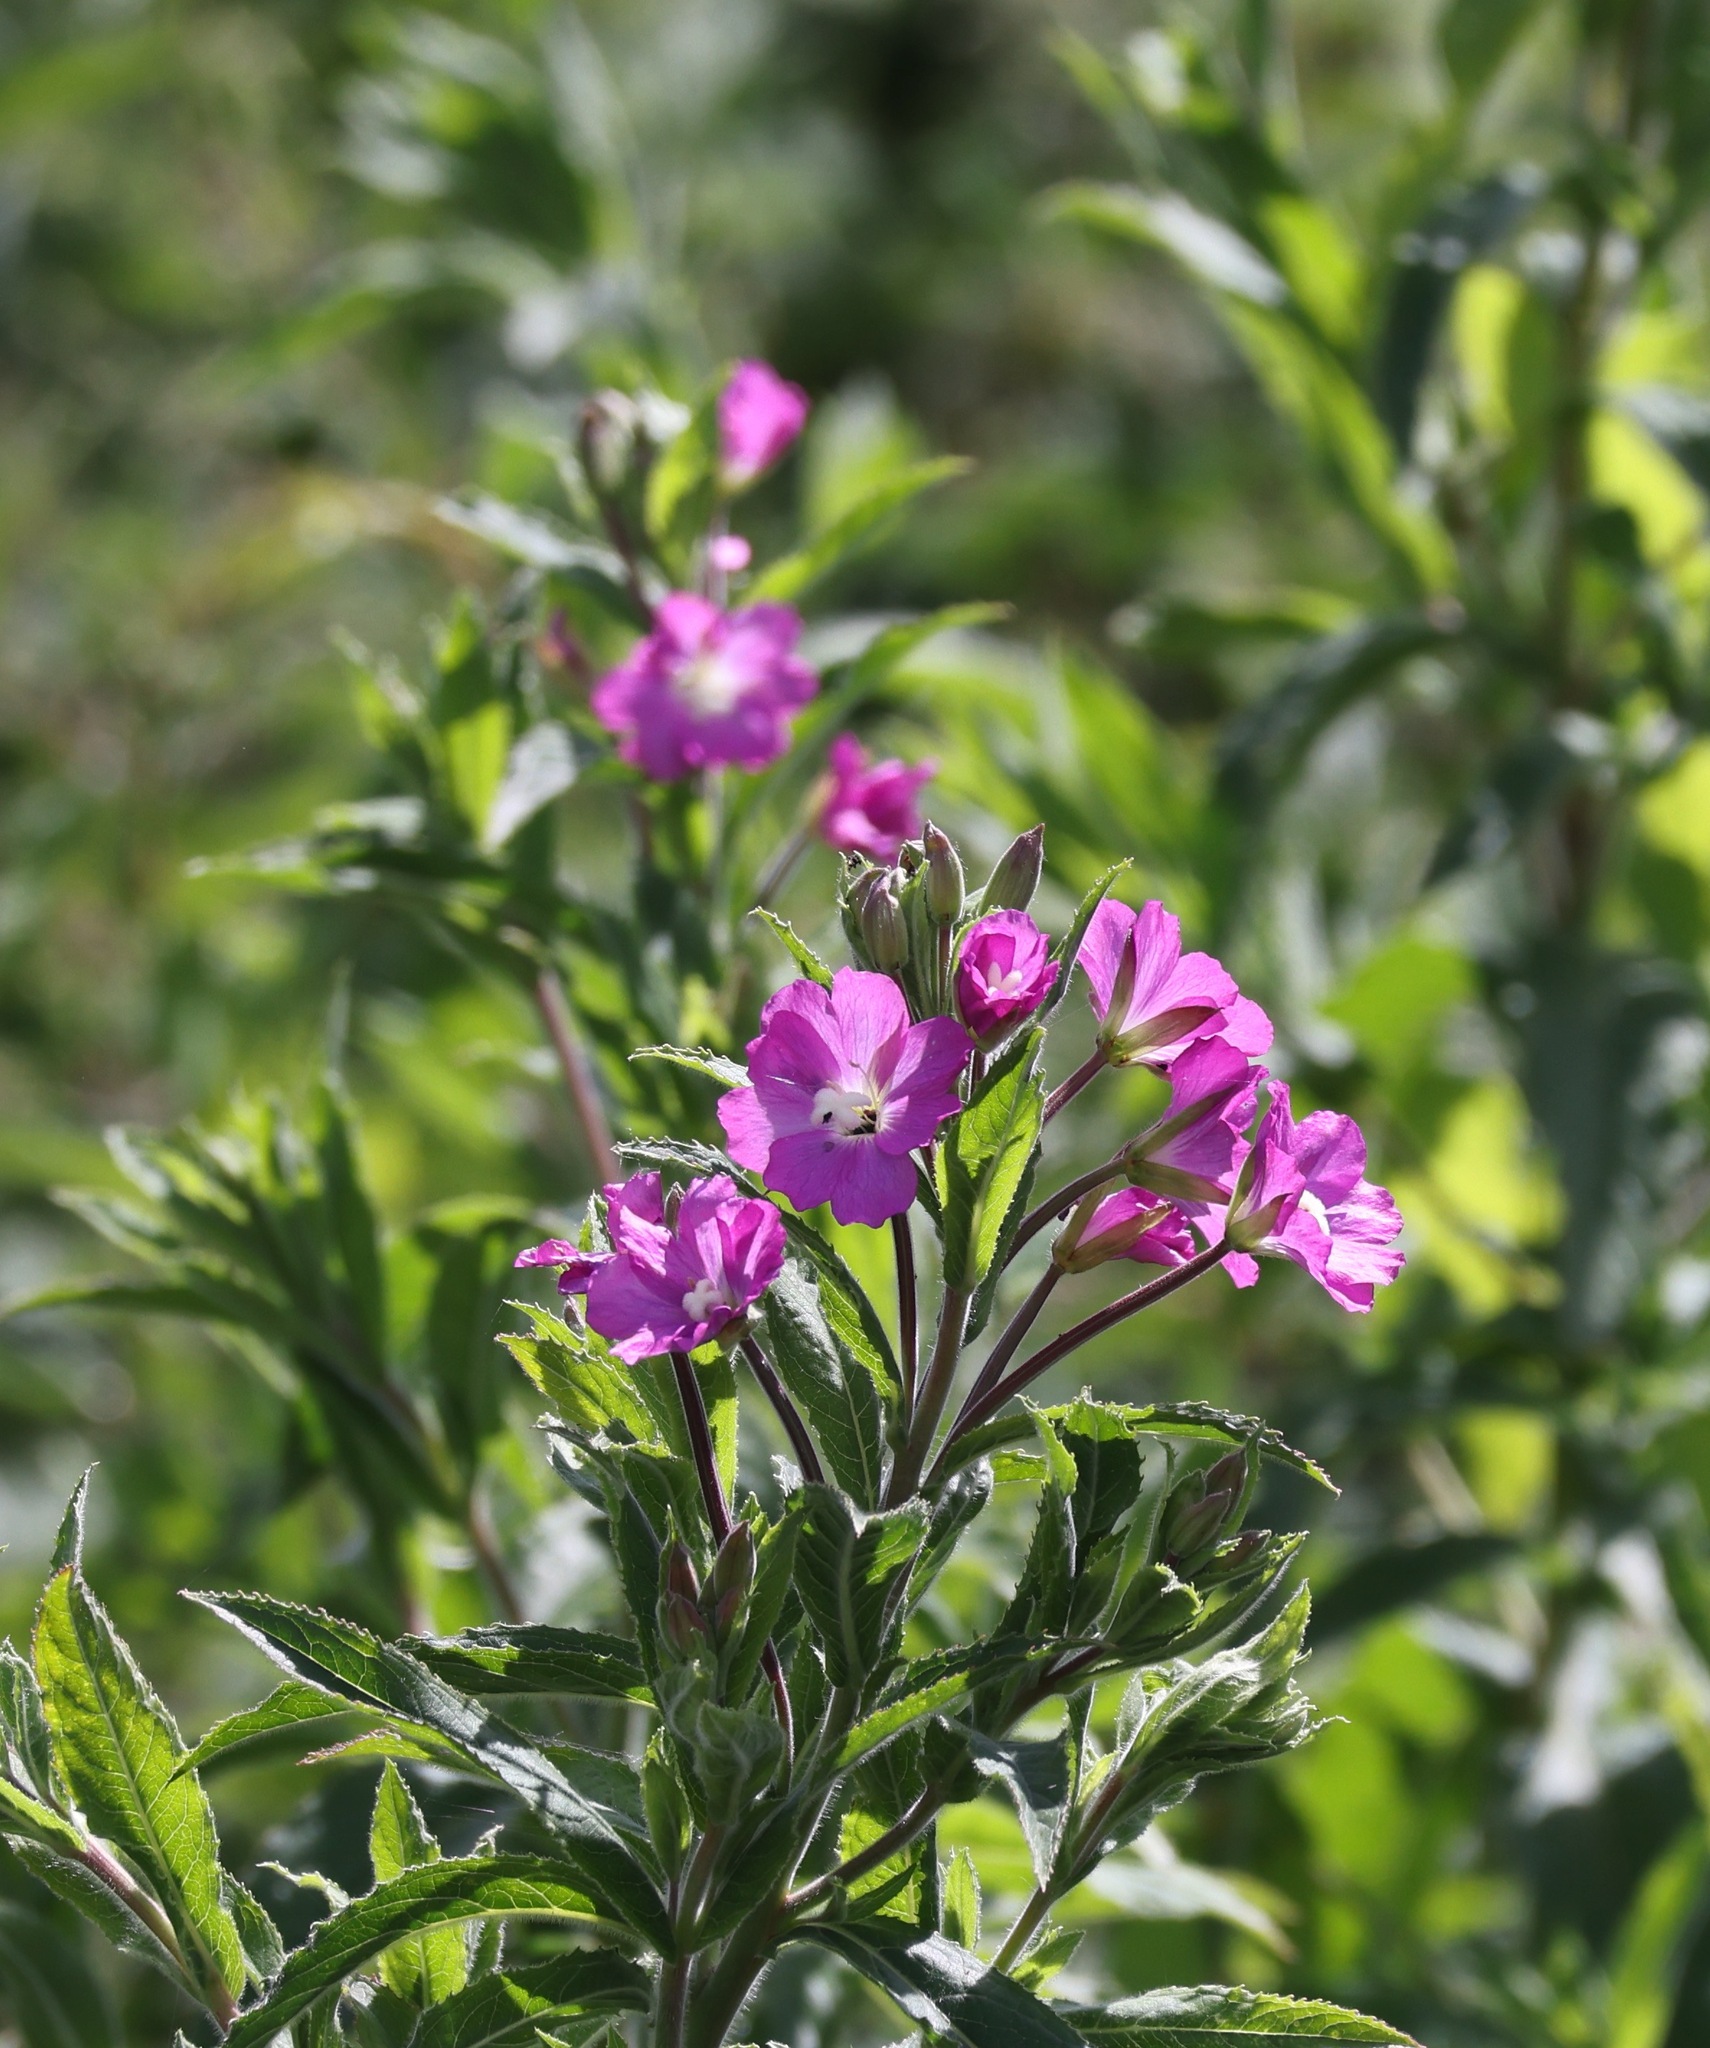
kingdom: Plantae
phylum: Tracheophyta
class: Magnoliopsida
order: Myrtales
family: Onagraceae
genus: Epilobium
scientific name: Epilobium hirsutum
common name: Great willowherb
